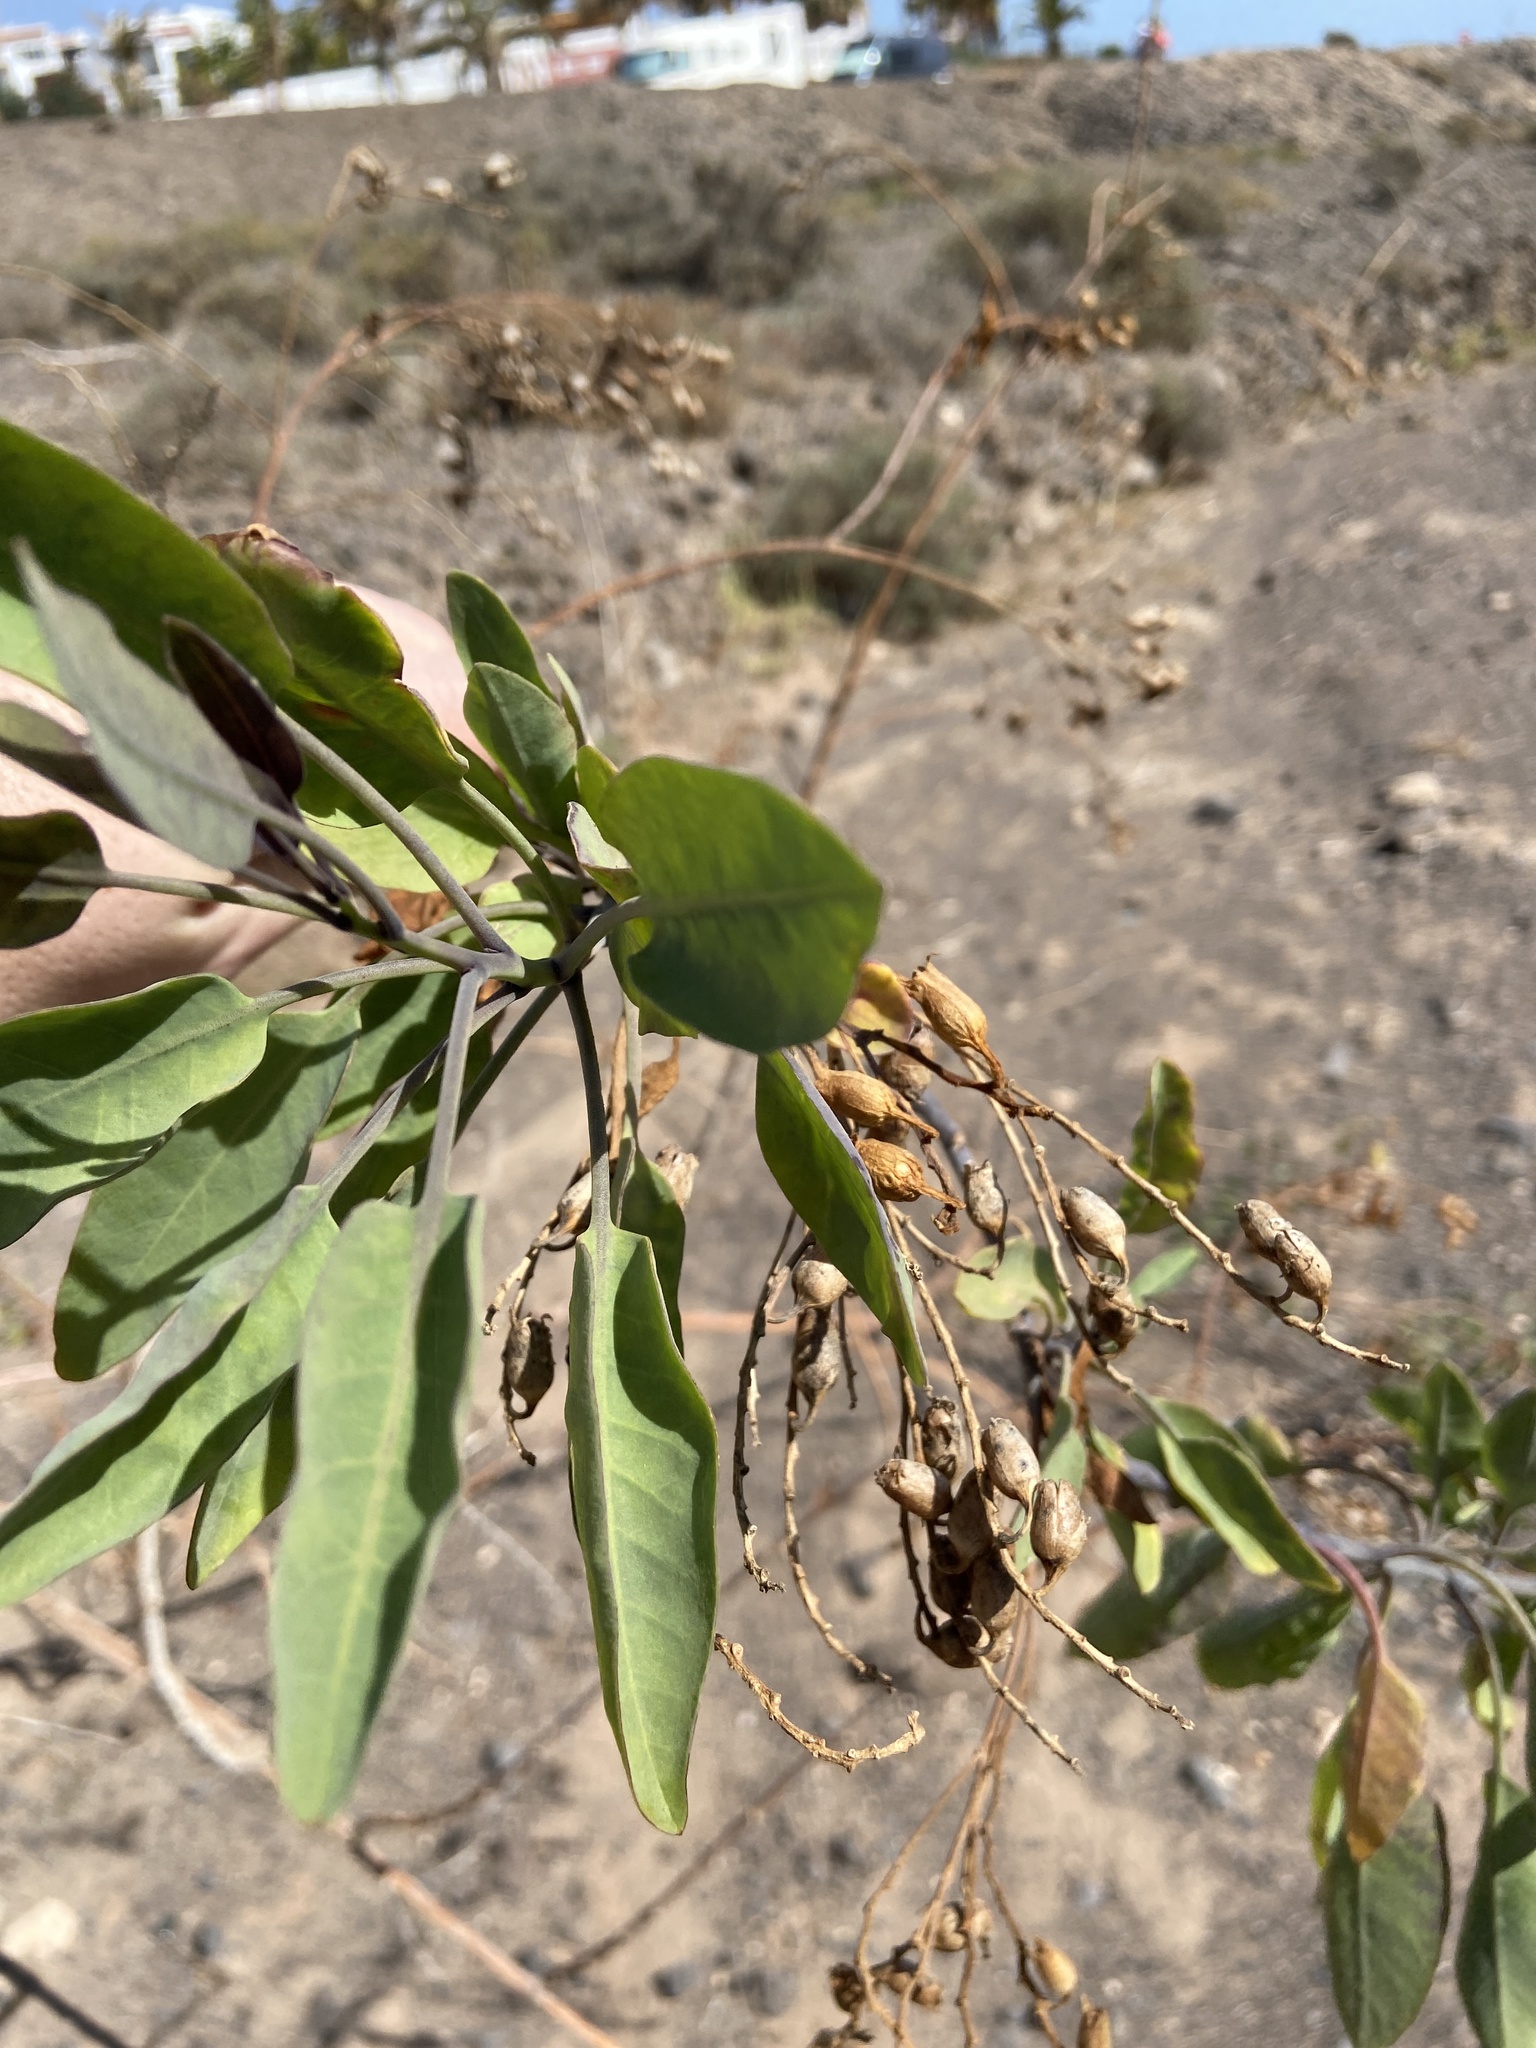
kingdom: Plantae
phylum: Tracheophyta
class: Magnoliopsida
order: Solanales
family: Solanaceae
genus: Nicotiana
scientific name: Nicotiana glauca
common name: Tree tobacco
